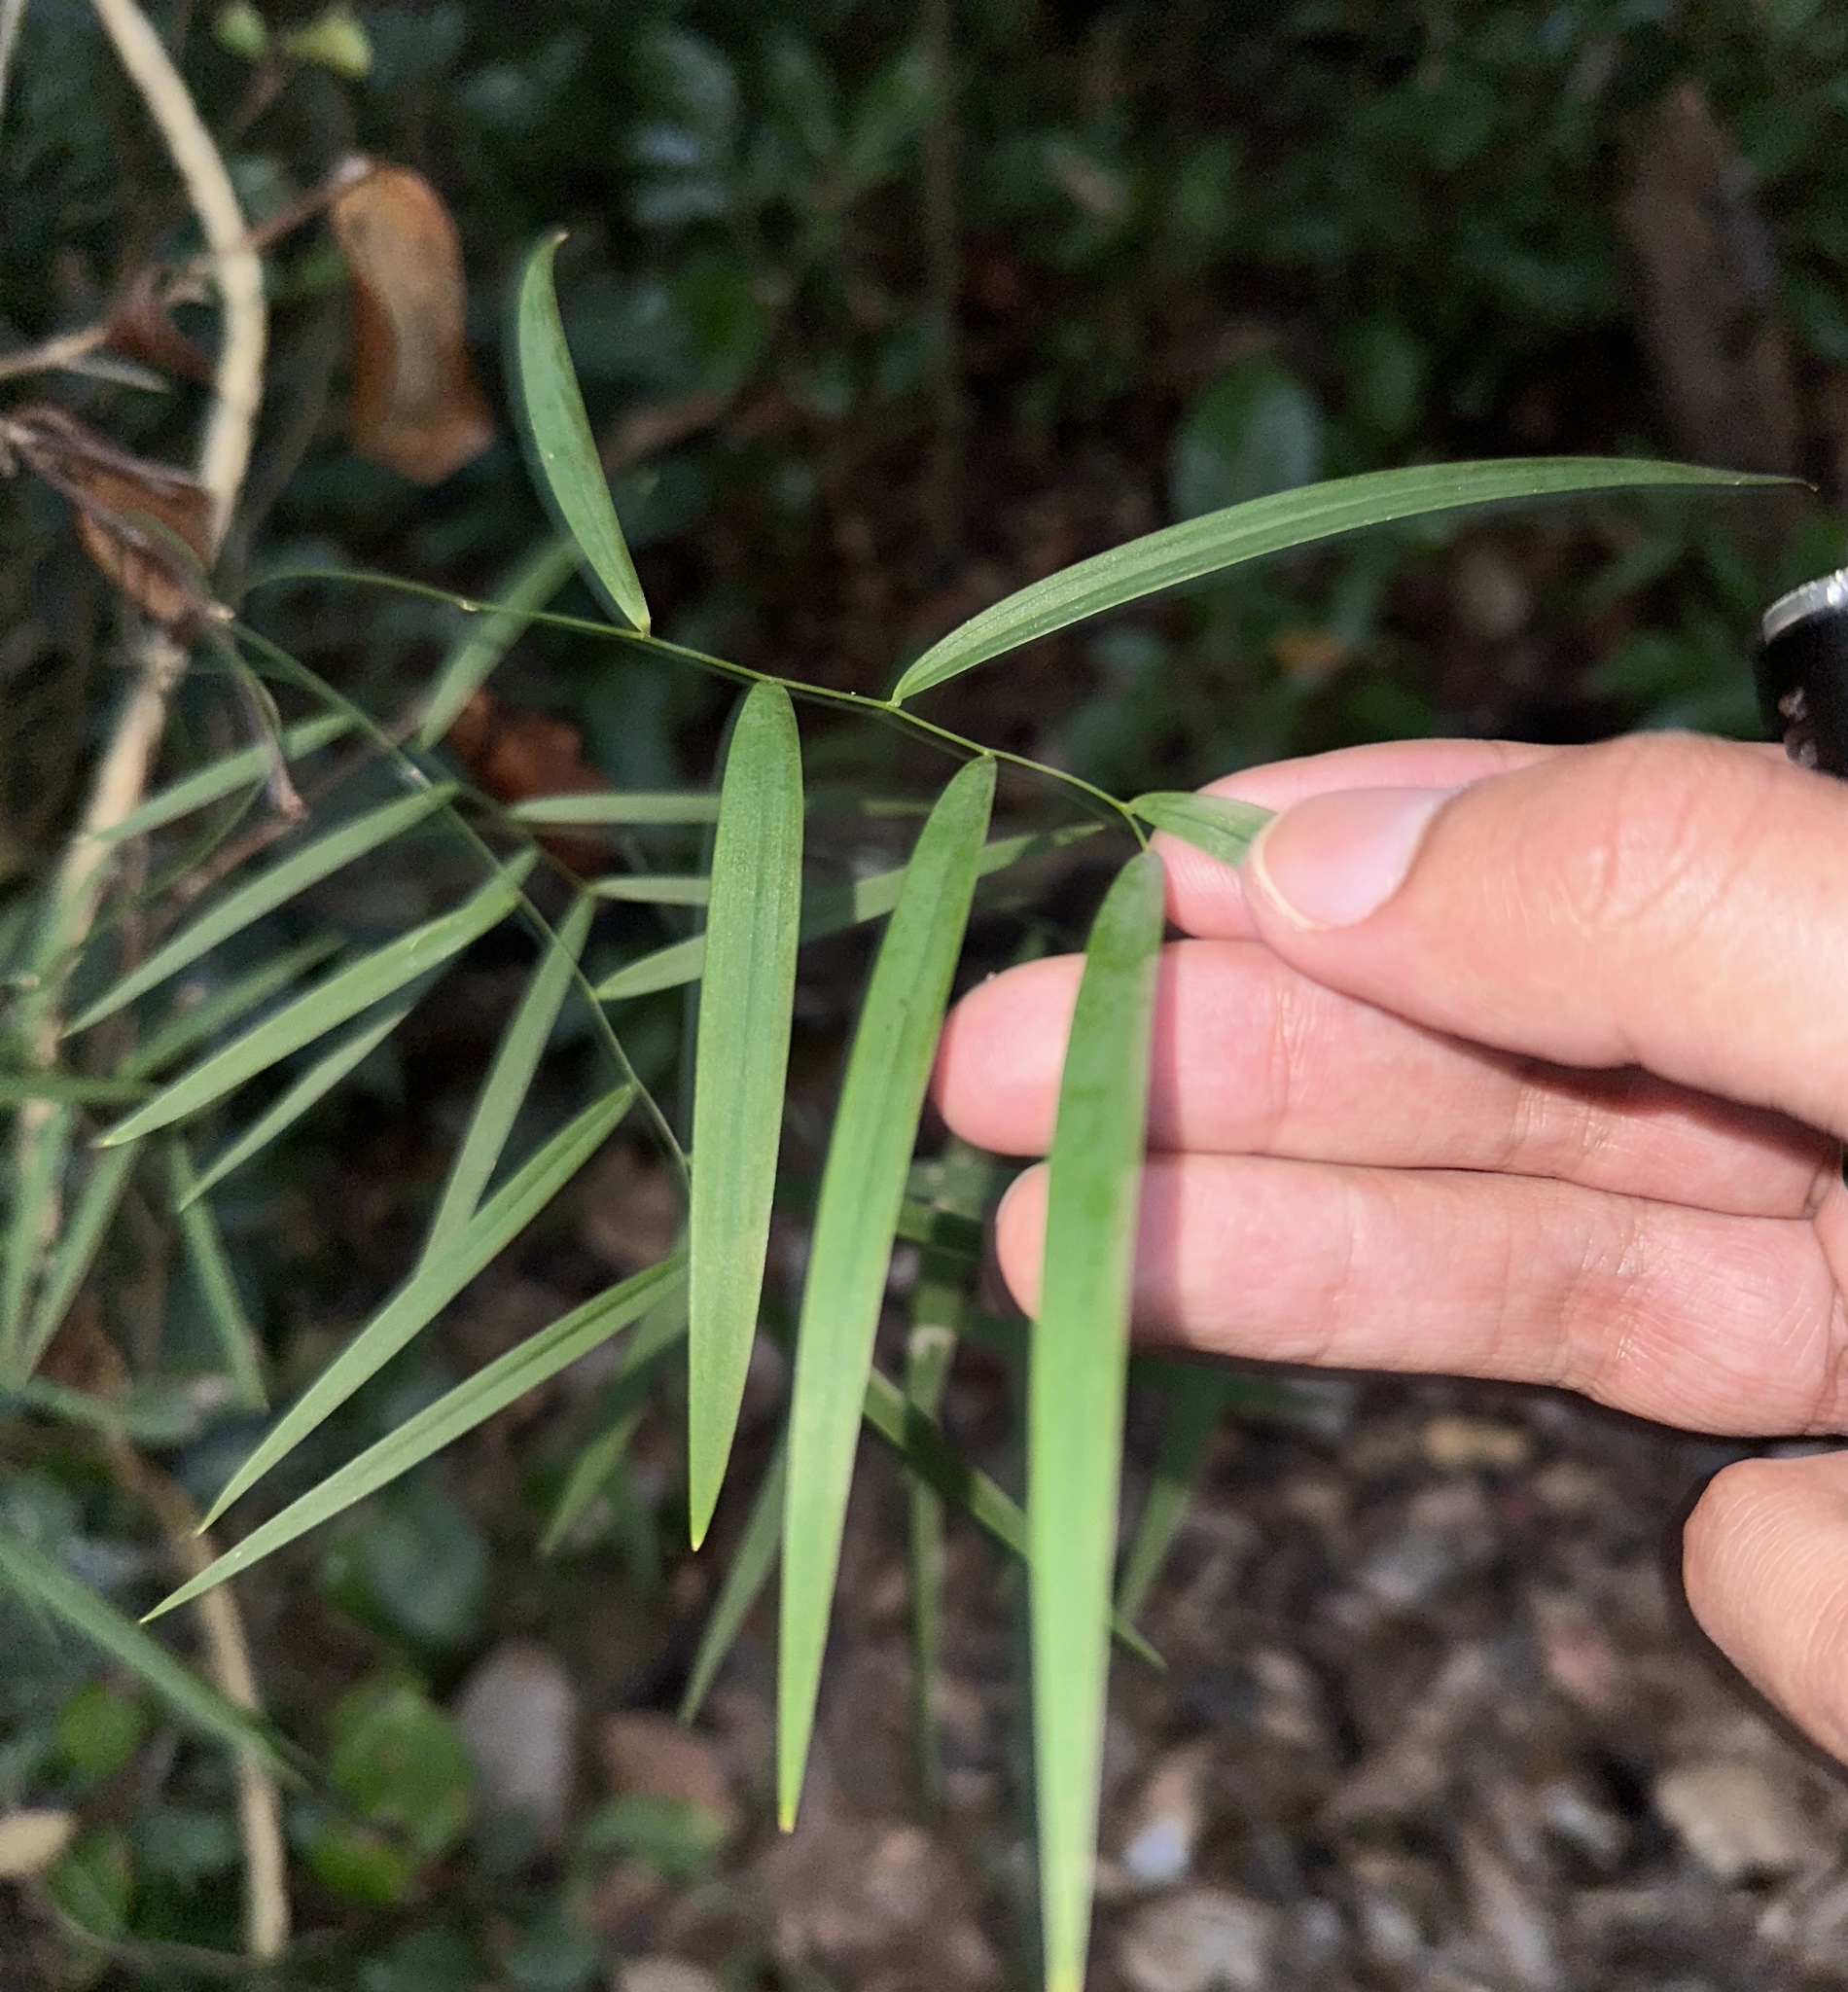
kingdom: Plantae
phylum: Tracheophyta
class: Liliopsida
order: Asparagales
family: Asparagaceae
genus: Eustrephus
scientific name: Eustrephus latifolius
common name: Orangevine
